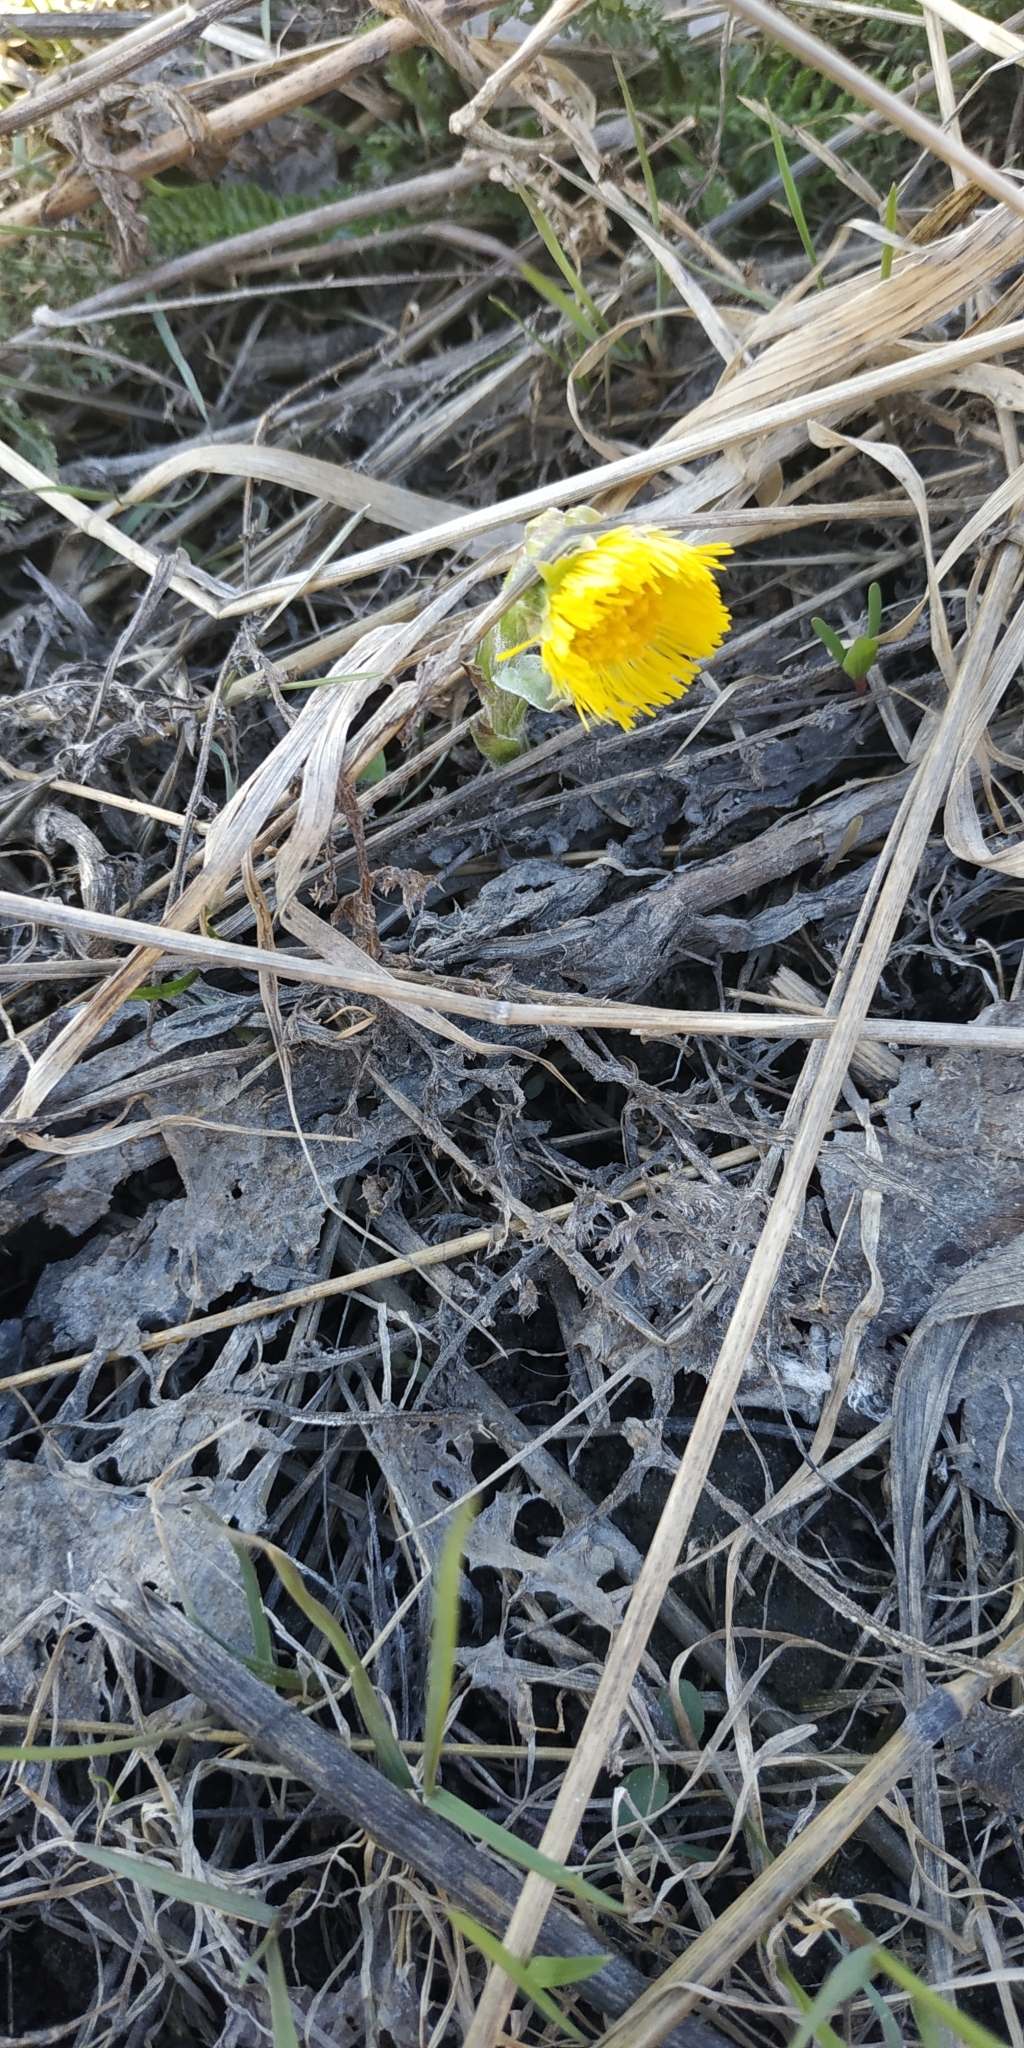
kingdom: Plantae
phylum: Tracheophyta
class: Magnoliopsida
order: Asterales
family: Asteraceae
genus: Tussilago
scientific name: Tussilago farfara
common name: Coltsfoot
